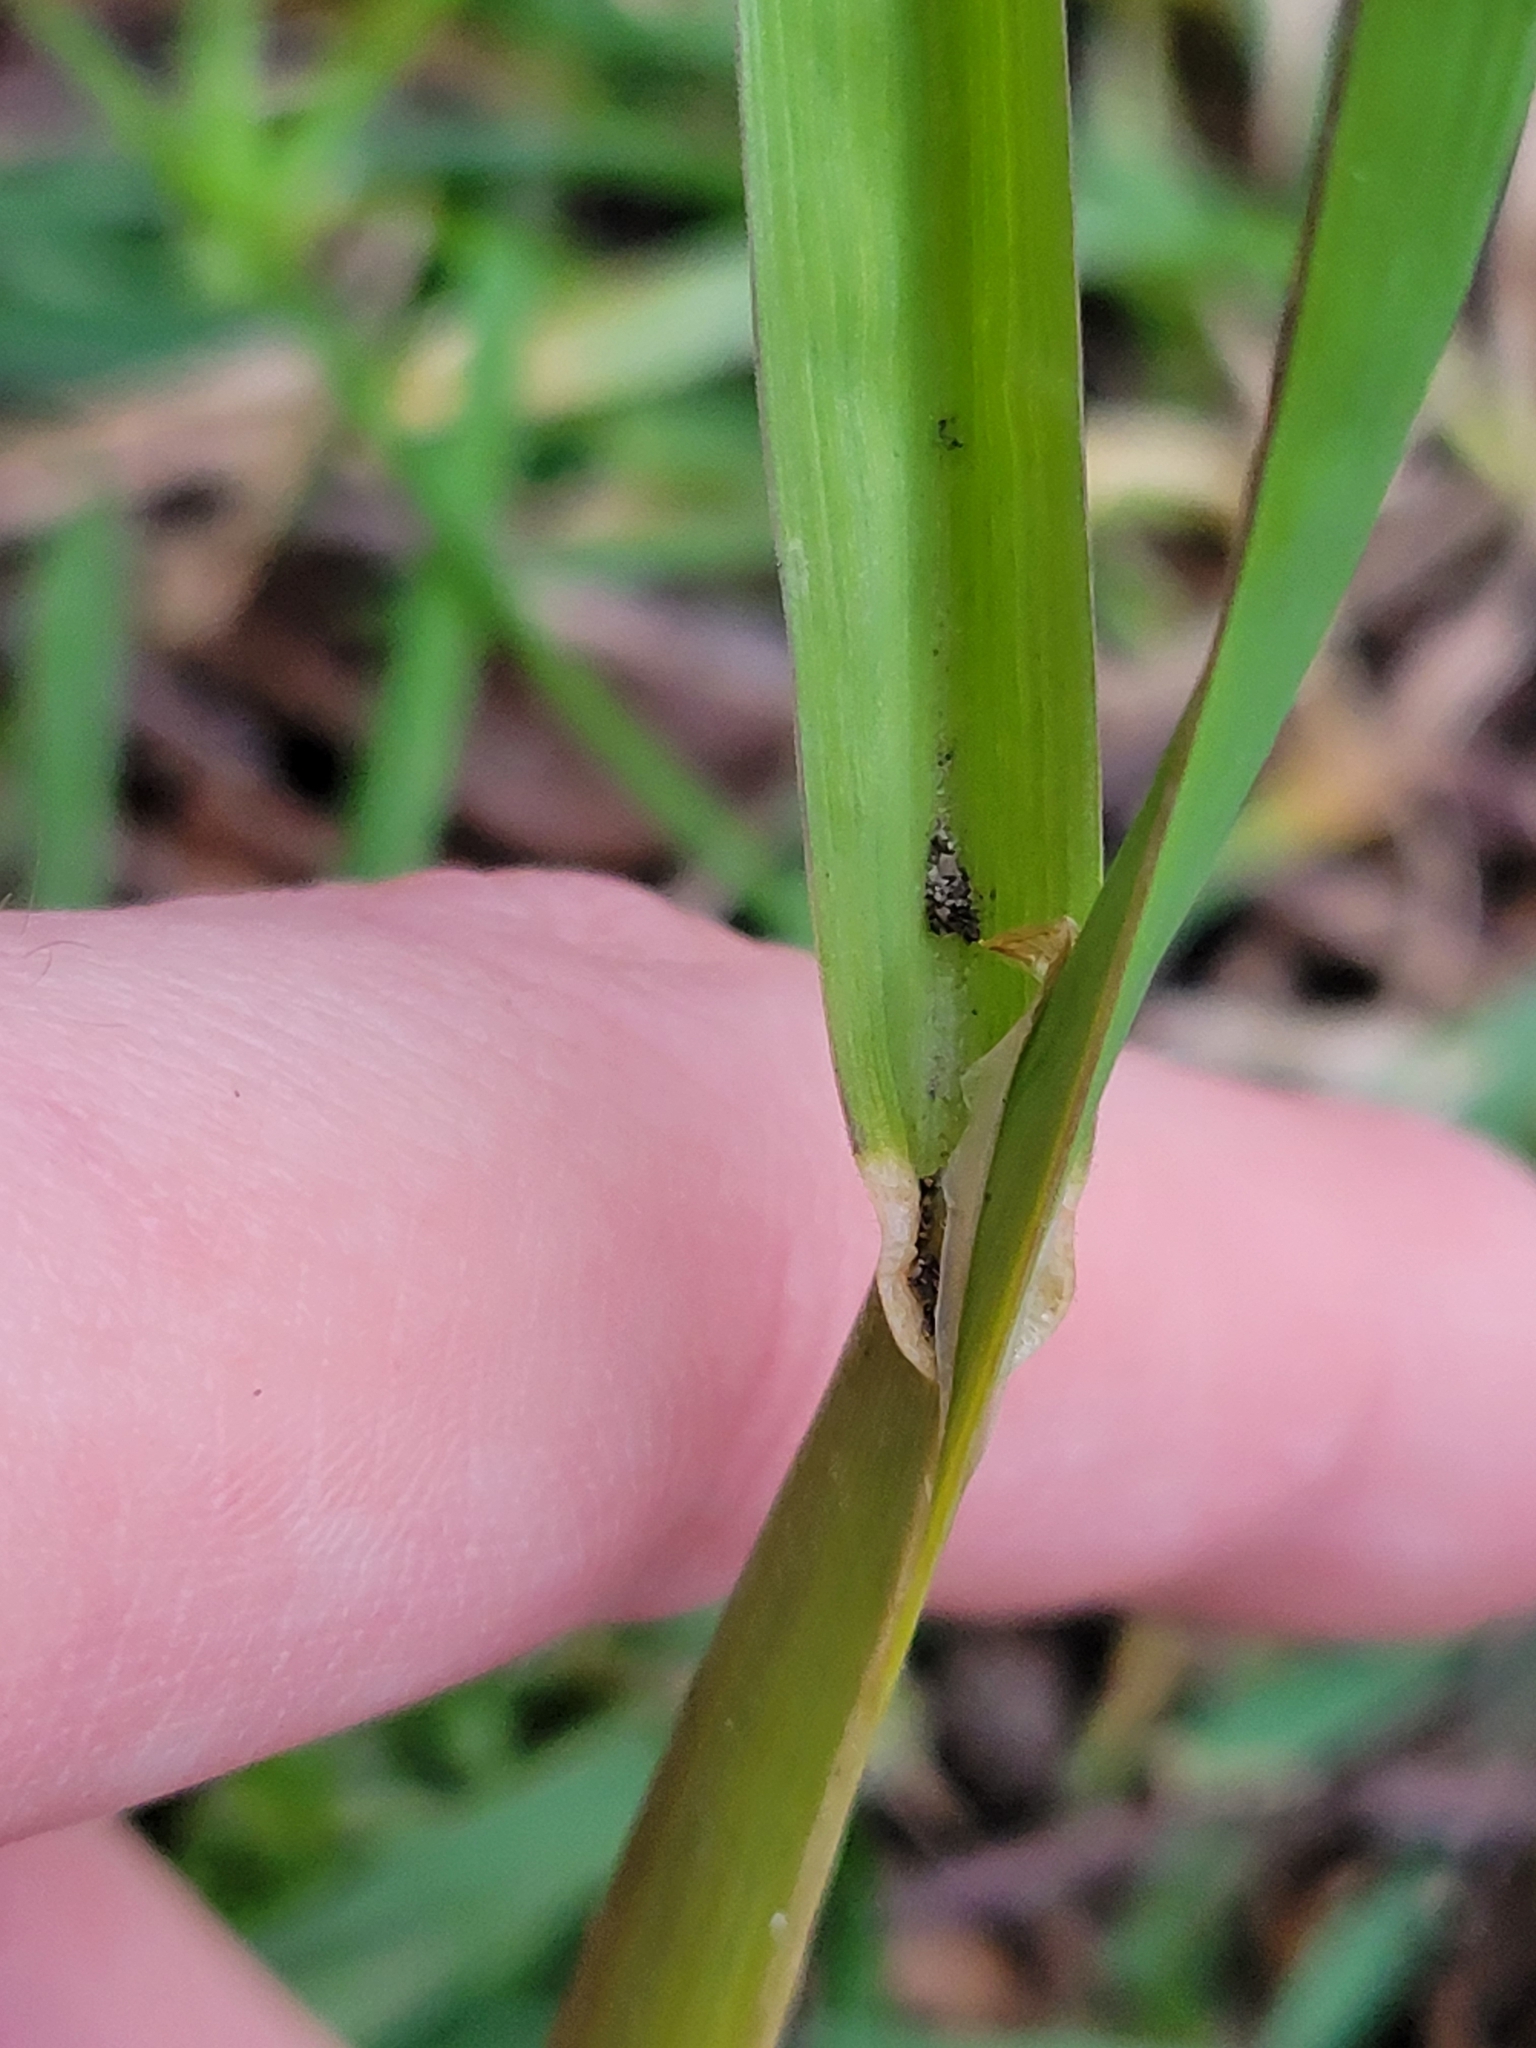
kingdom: Plantae
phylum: Tracheophyta
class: Liliopsida
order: Poales
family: Poaceae
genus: Dactylis
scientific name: Dactylis glomerata
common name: Orchardgrass
